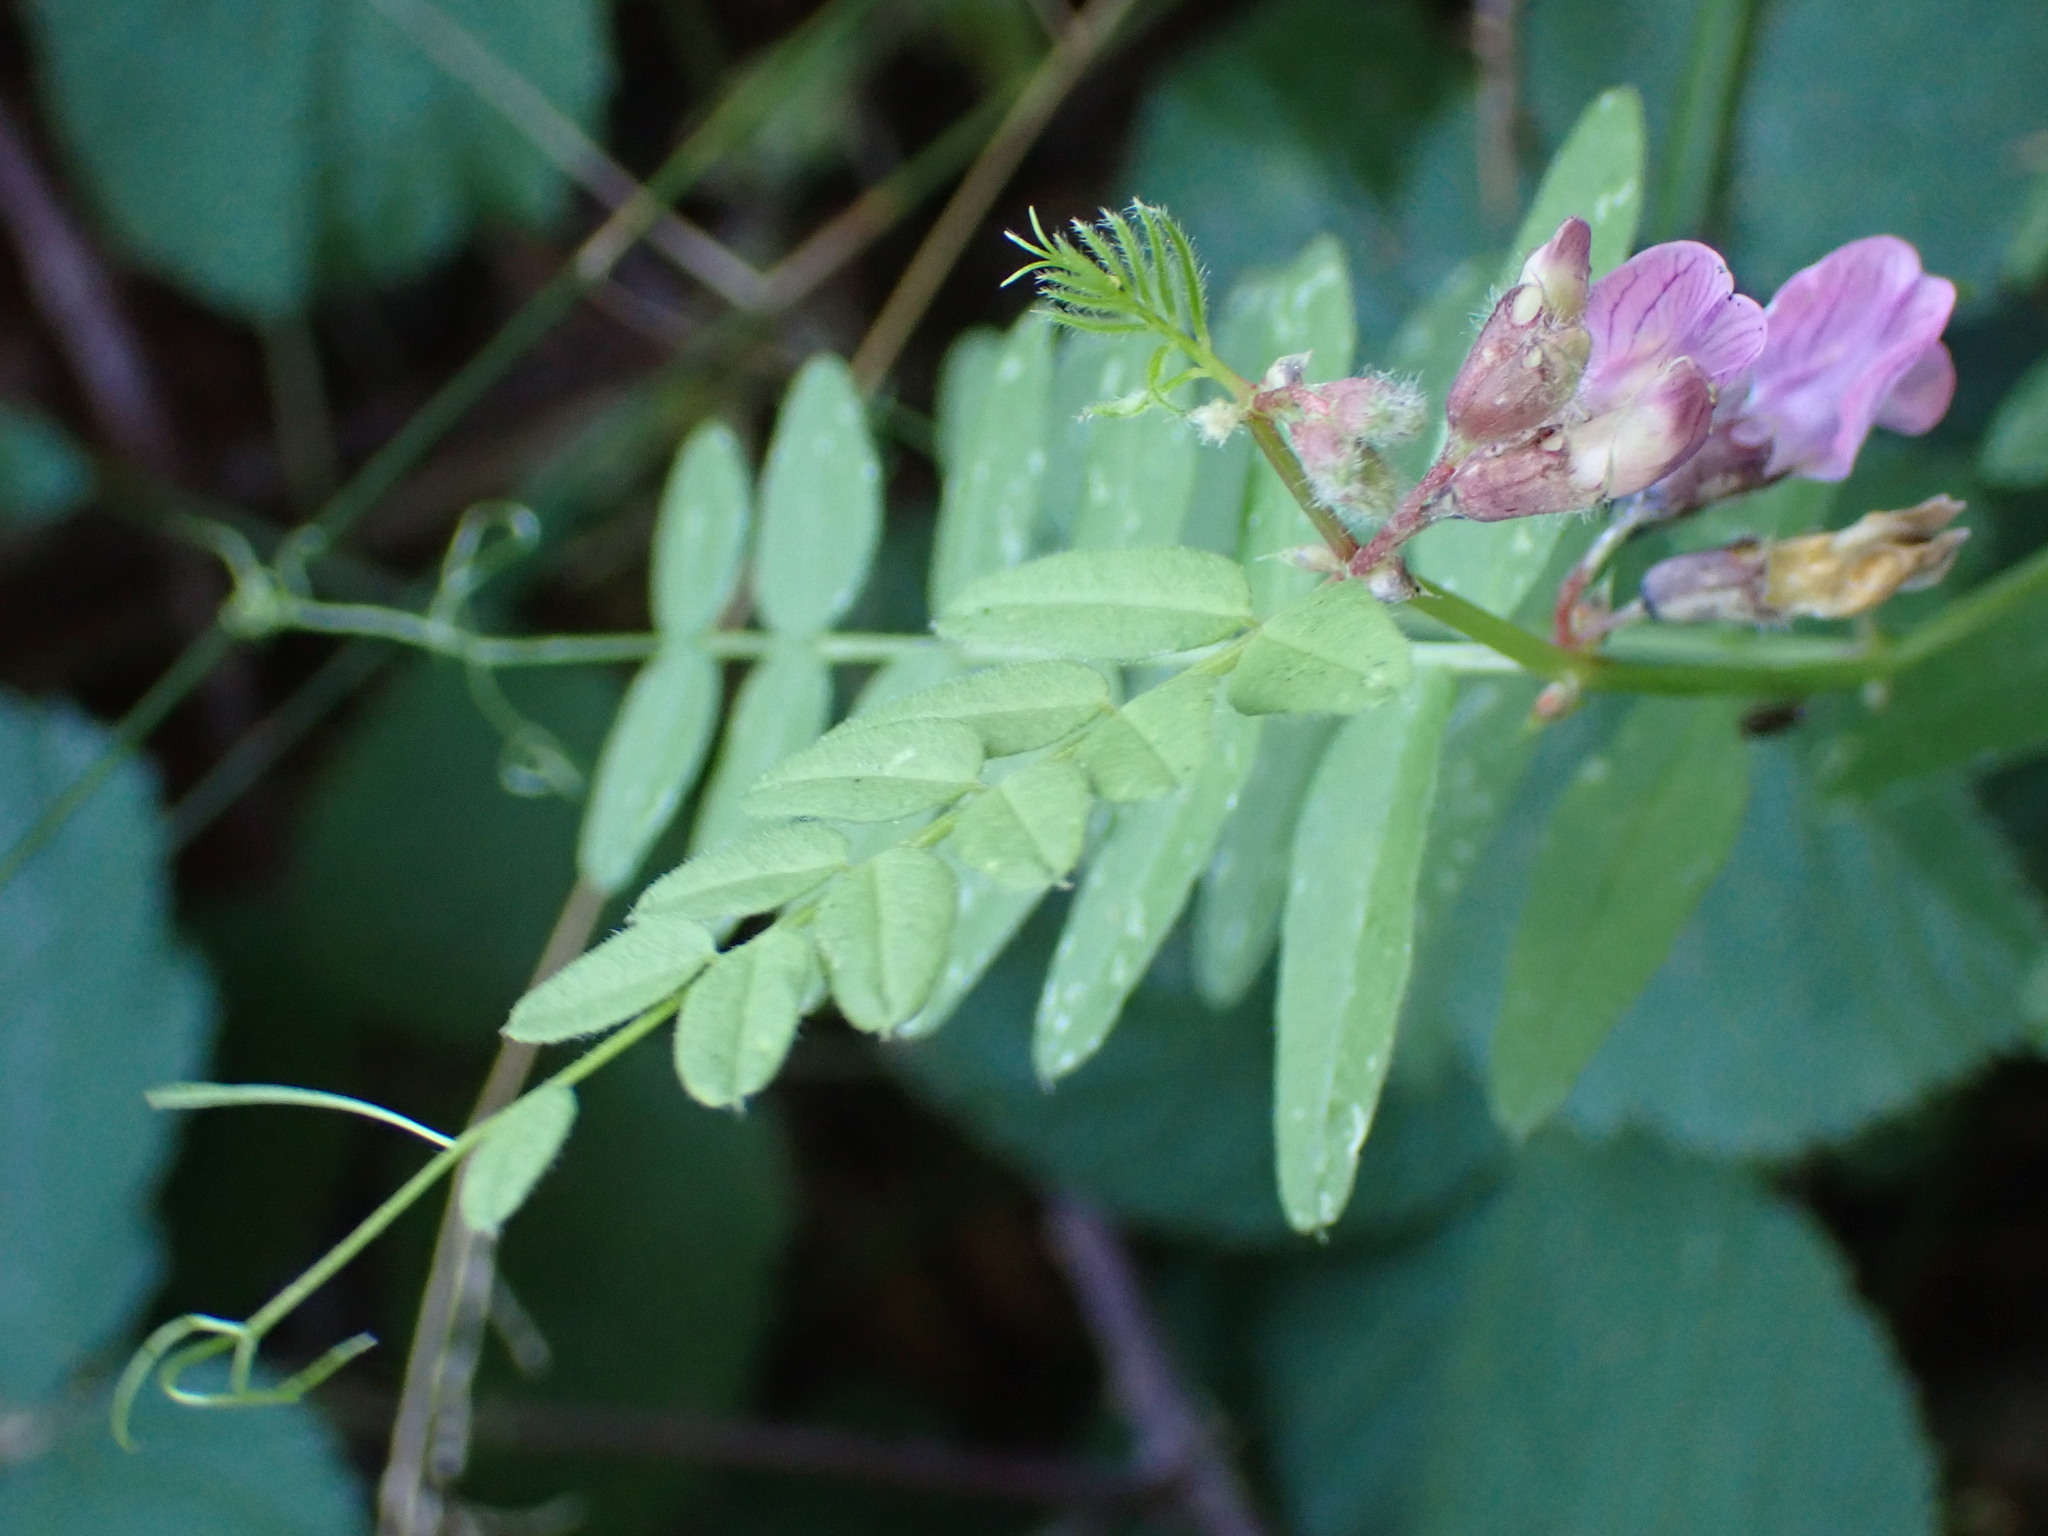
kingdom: Plantae
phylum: Tracheophyta
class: Magnoliopsida
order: Fabales
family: Fabaceae
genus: Vicia
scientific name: Vicia sepium
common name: Bush vetch
